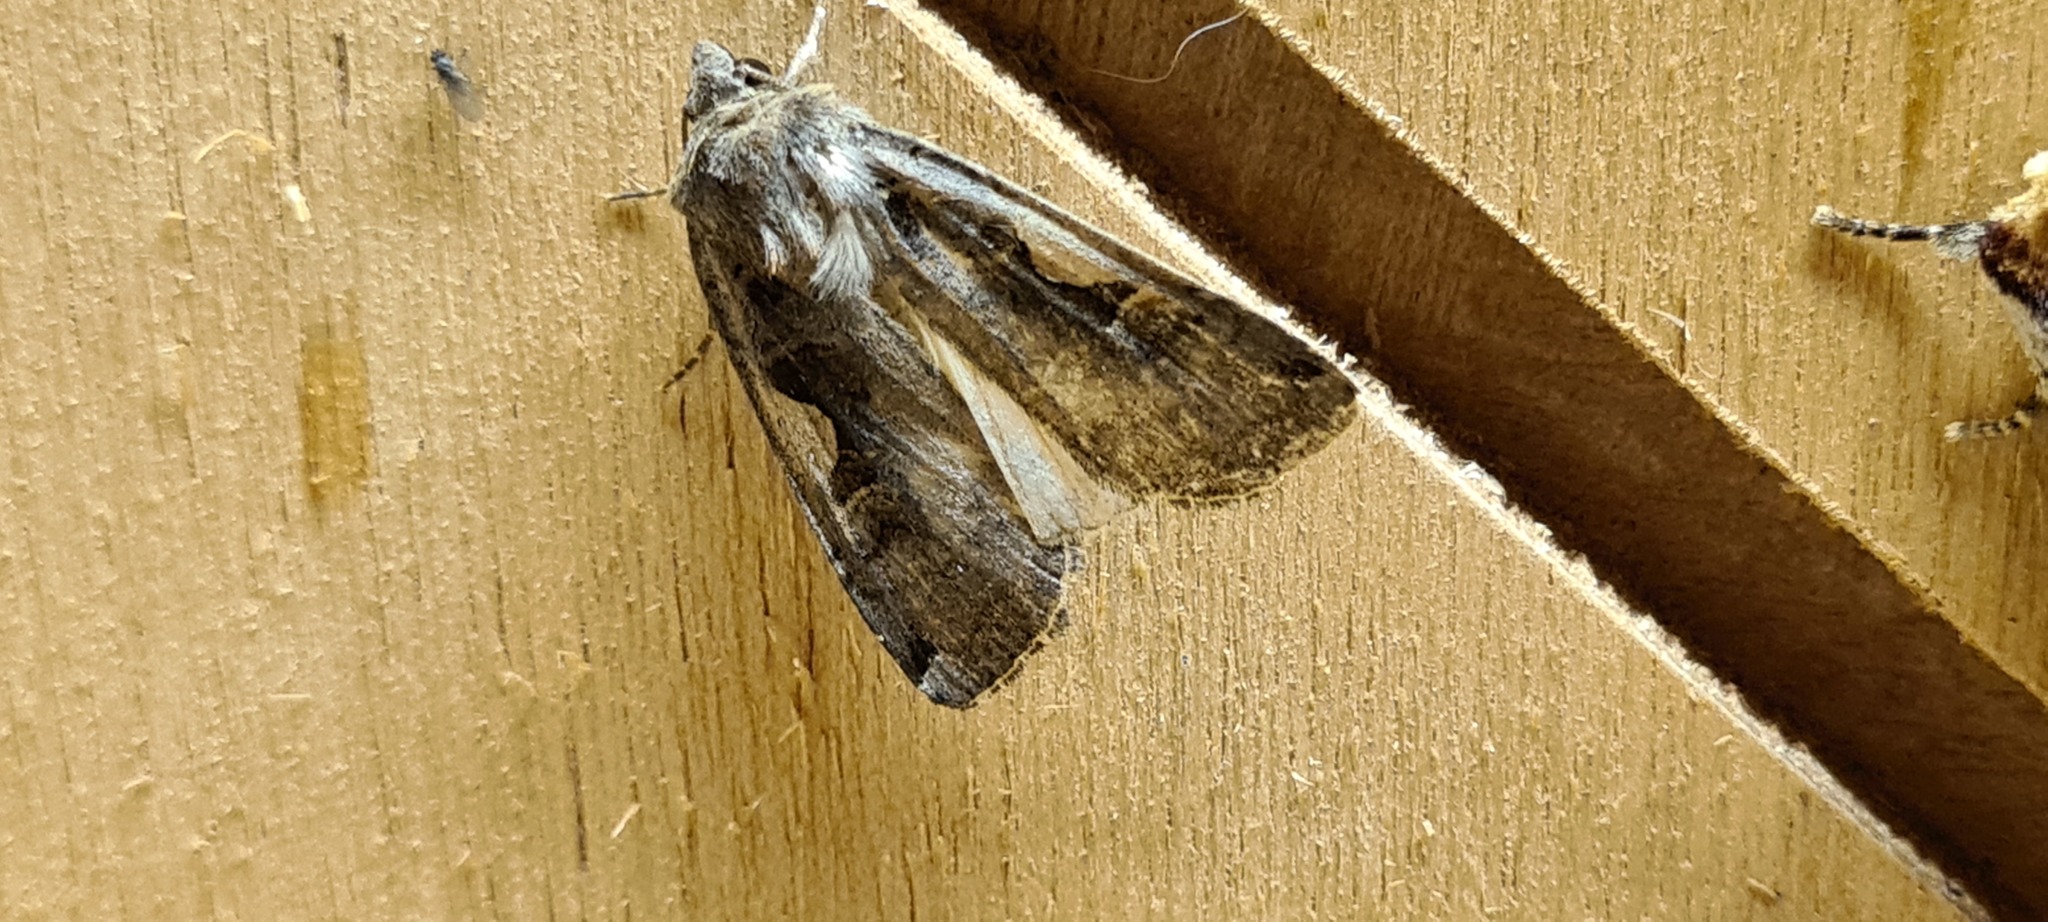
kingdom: Animalia
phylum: Arthropoda
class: Insecta
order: Lepidoptera
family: Noctuidae
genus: Xestia
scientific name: Xestia c-nigrum
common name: Setaceous hebrew character
